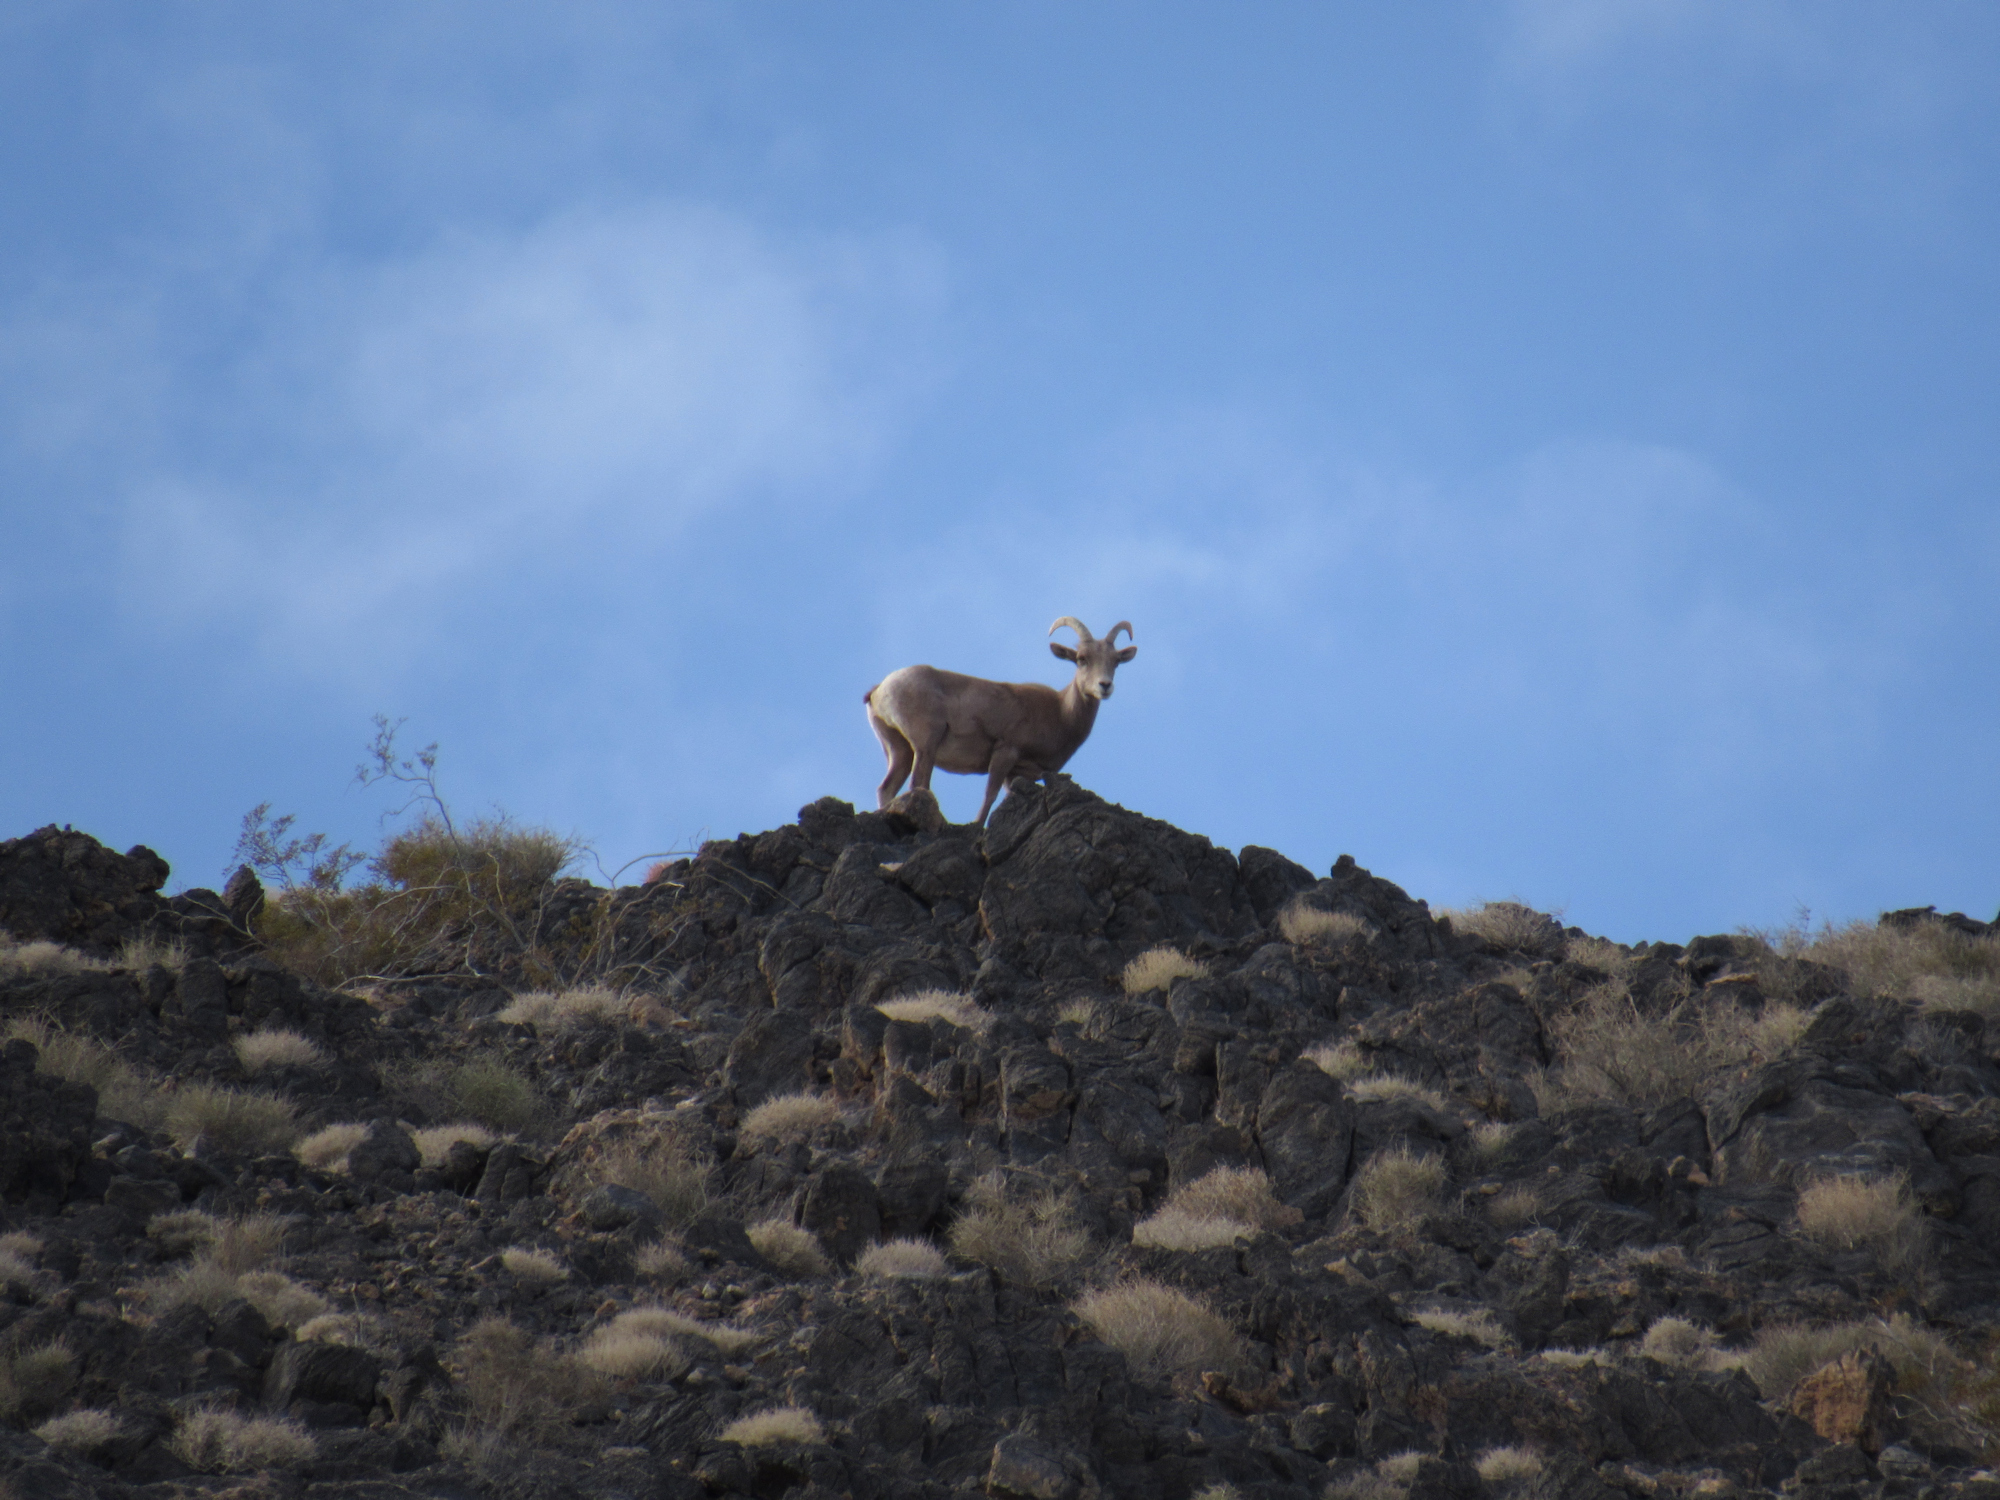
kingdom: Animalia
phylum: Chordata
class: Mammalia
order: Artiodactyla
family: Bovidae
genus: Ovis
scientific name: Ovis canadensis
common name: Bighorn sheep
